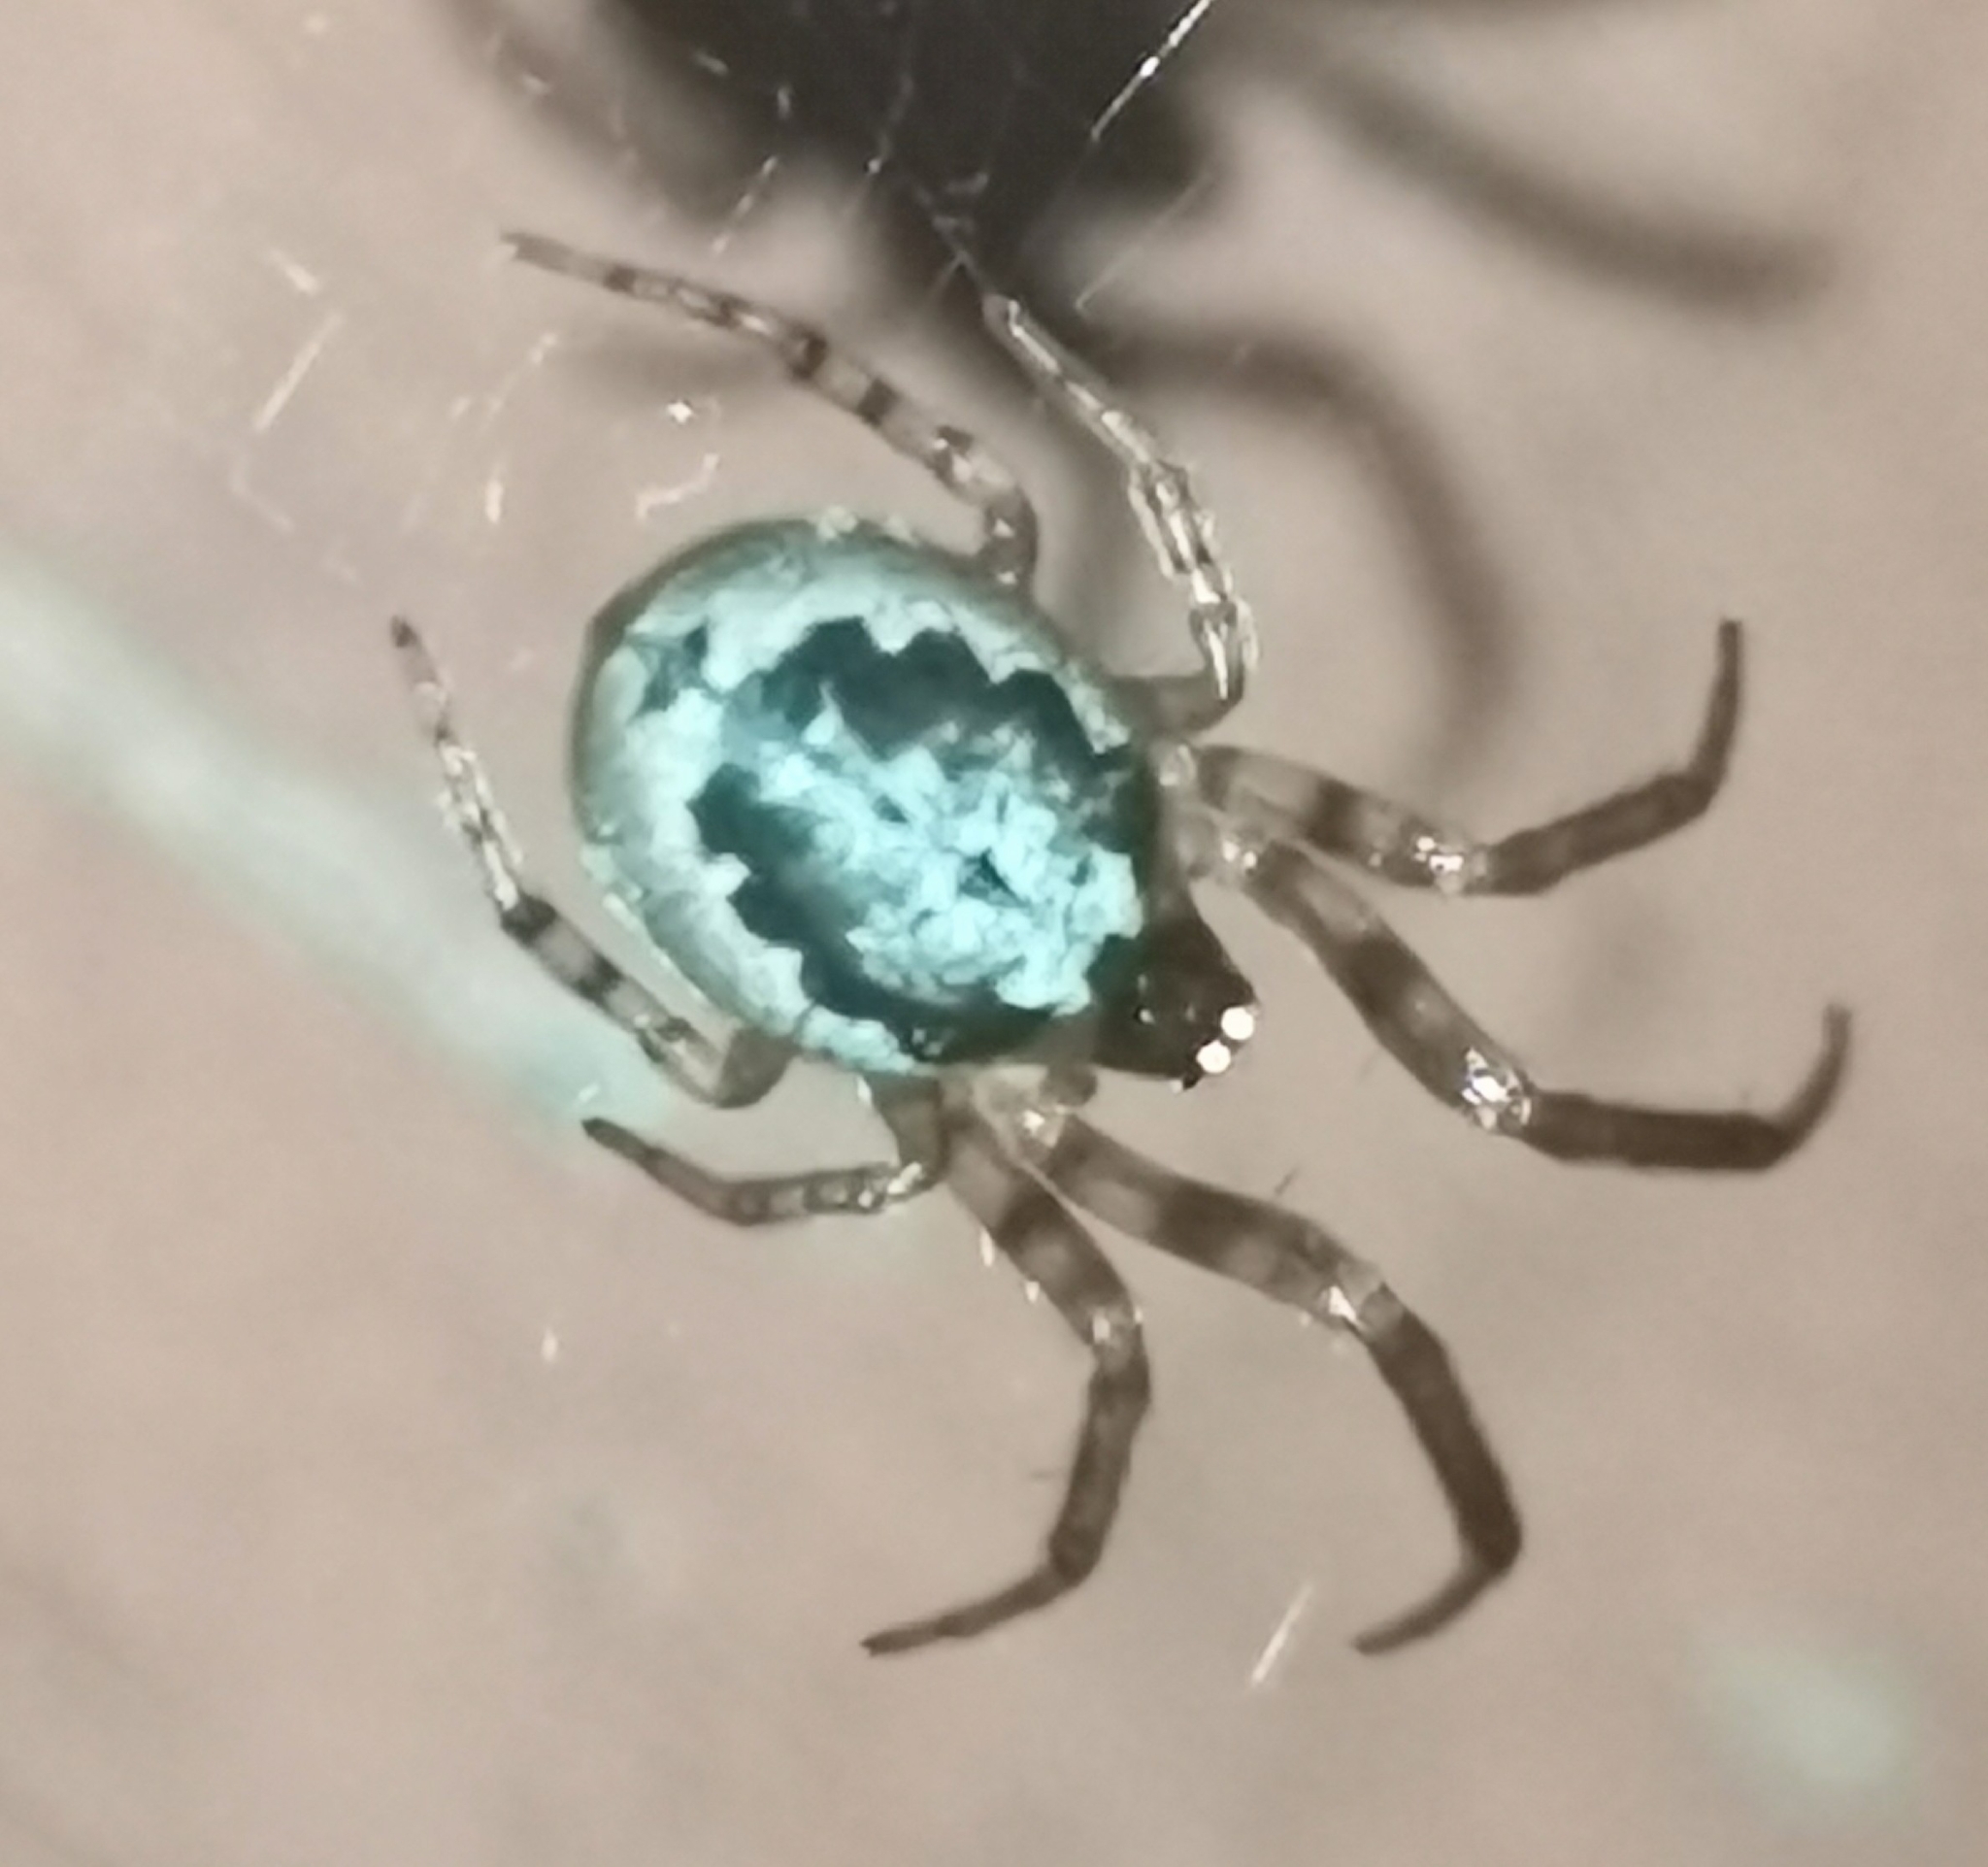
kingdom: Animalia
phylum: Arthropoda
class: Arachnida
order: Araneae
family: Araneidae
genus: Leviellus
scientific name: Leviellus stroemi
